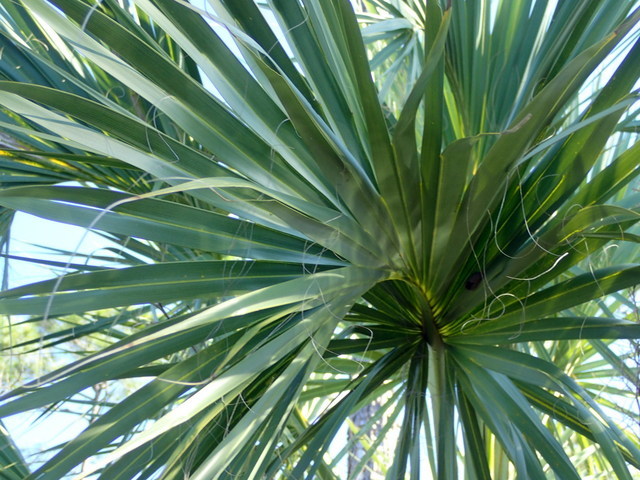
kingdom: Plantae
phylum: Tracheophyta
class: Liliopsida
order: Arecales
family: Arecaceae
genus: Sabal
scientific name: Sabal palmetto
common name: Blue palmetto
